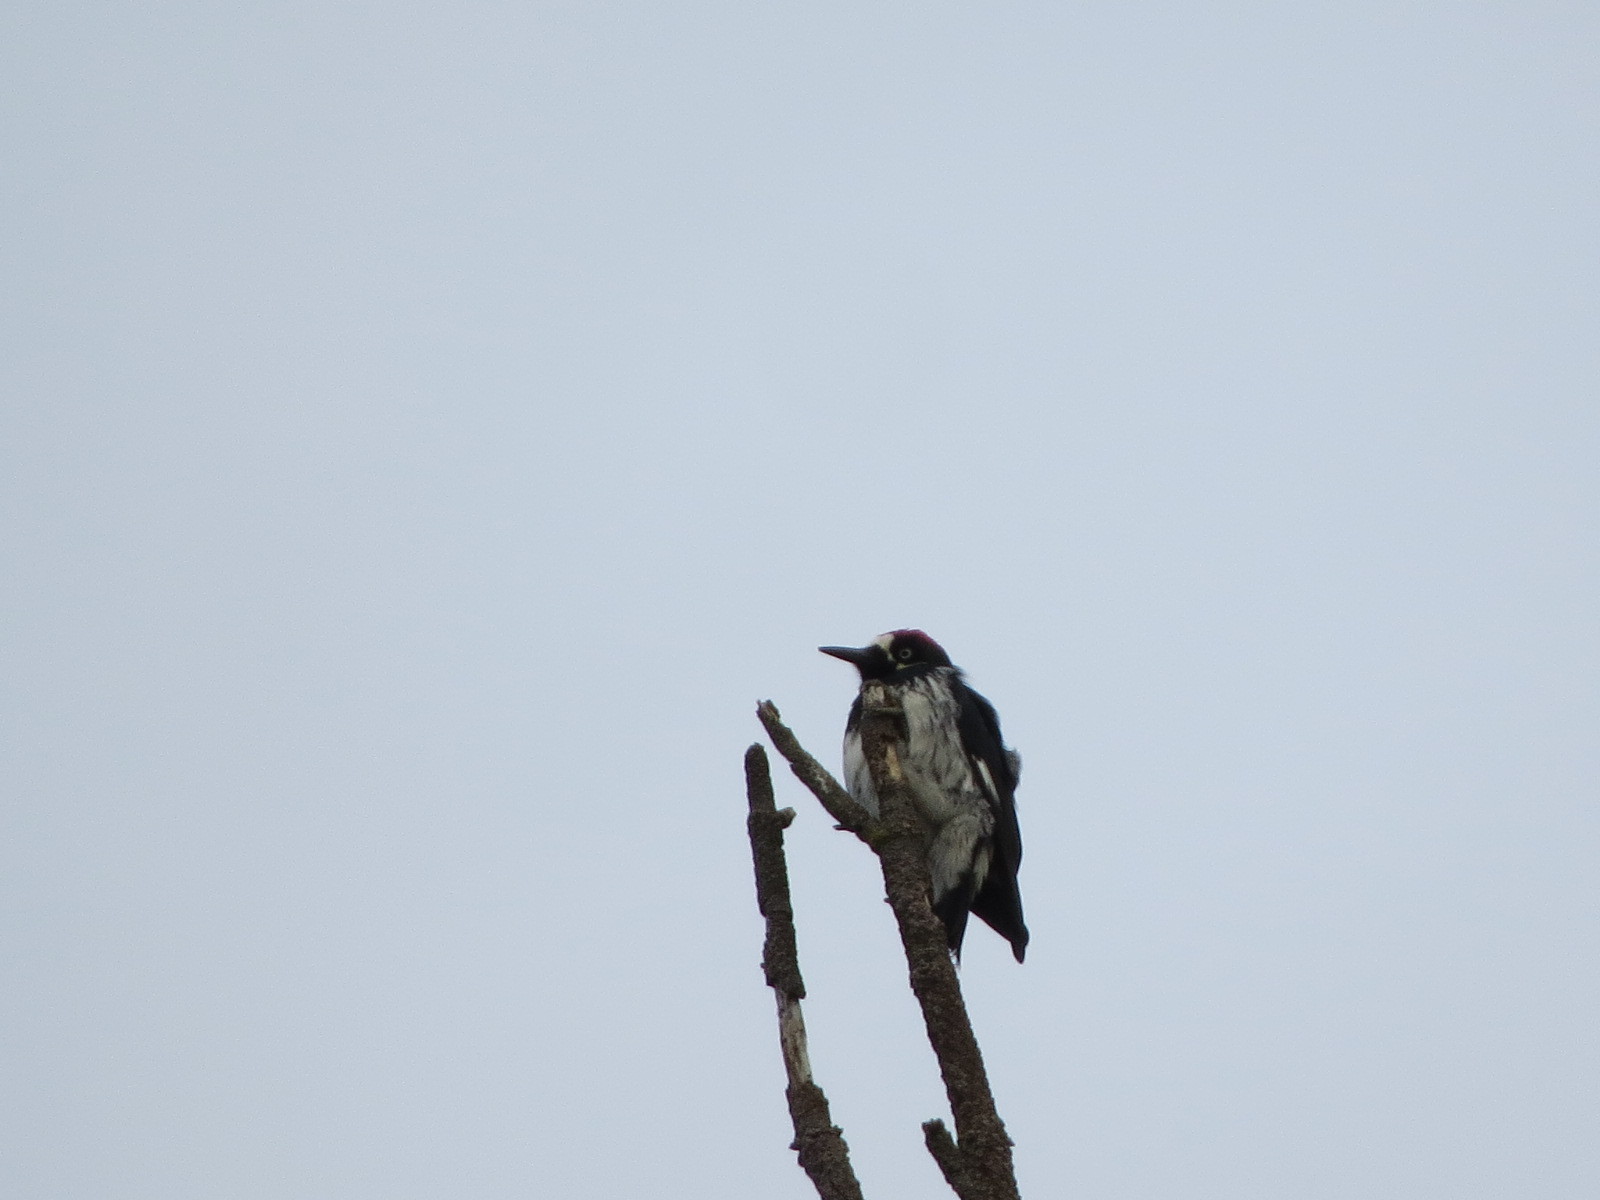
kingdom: Animalia
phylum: Chordata
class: Aves
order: Piciformes
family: Picidae
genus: Melanerpes
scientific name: Melanerpes formicivorus
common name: Acorn woodpecker
